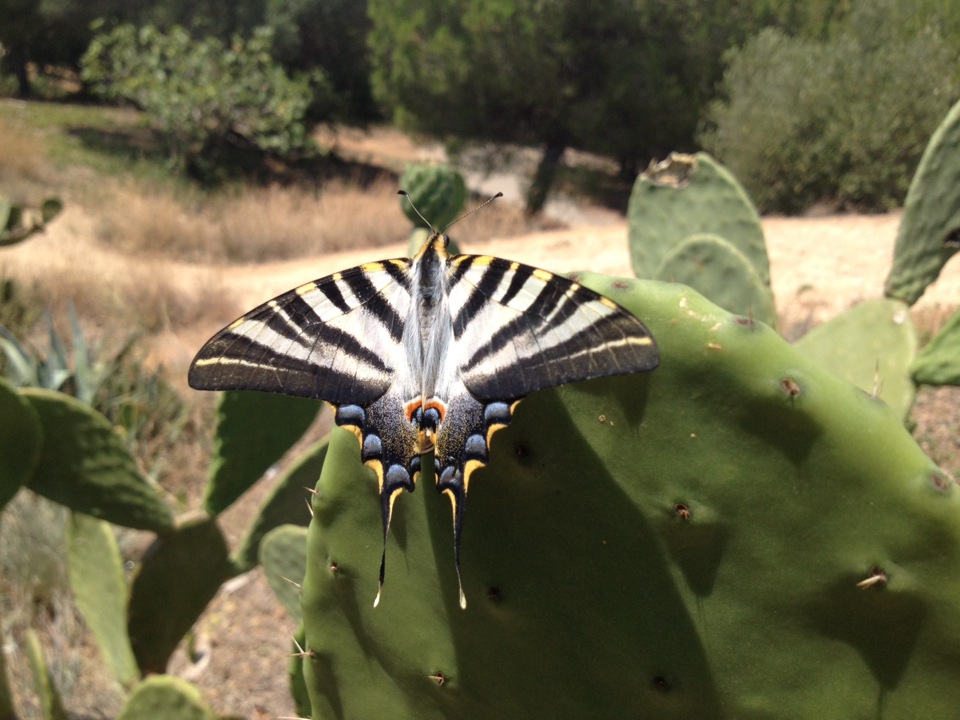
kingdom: Animalia
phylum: Arthropoda
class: Insecta
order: Lepidoptera
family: Papilionidae
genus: Iphiclides
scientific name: Iphiclides feisthamelii
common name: Iberian scarce swallowtail
